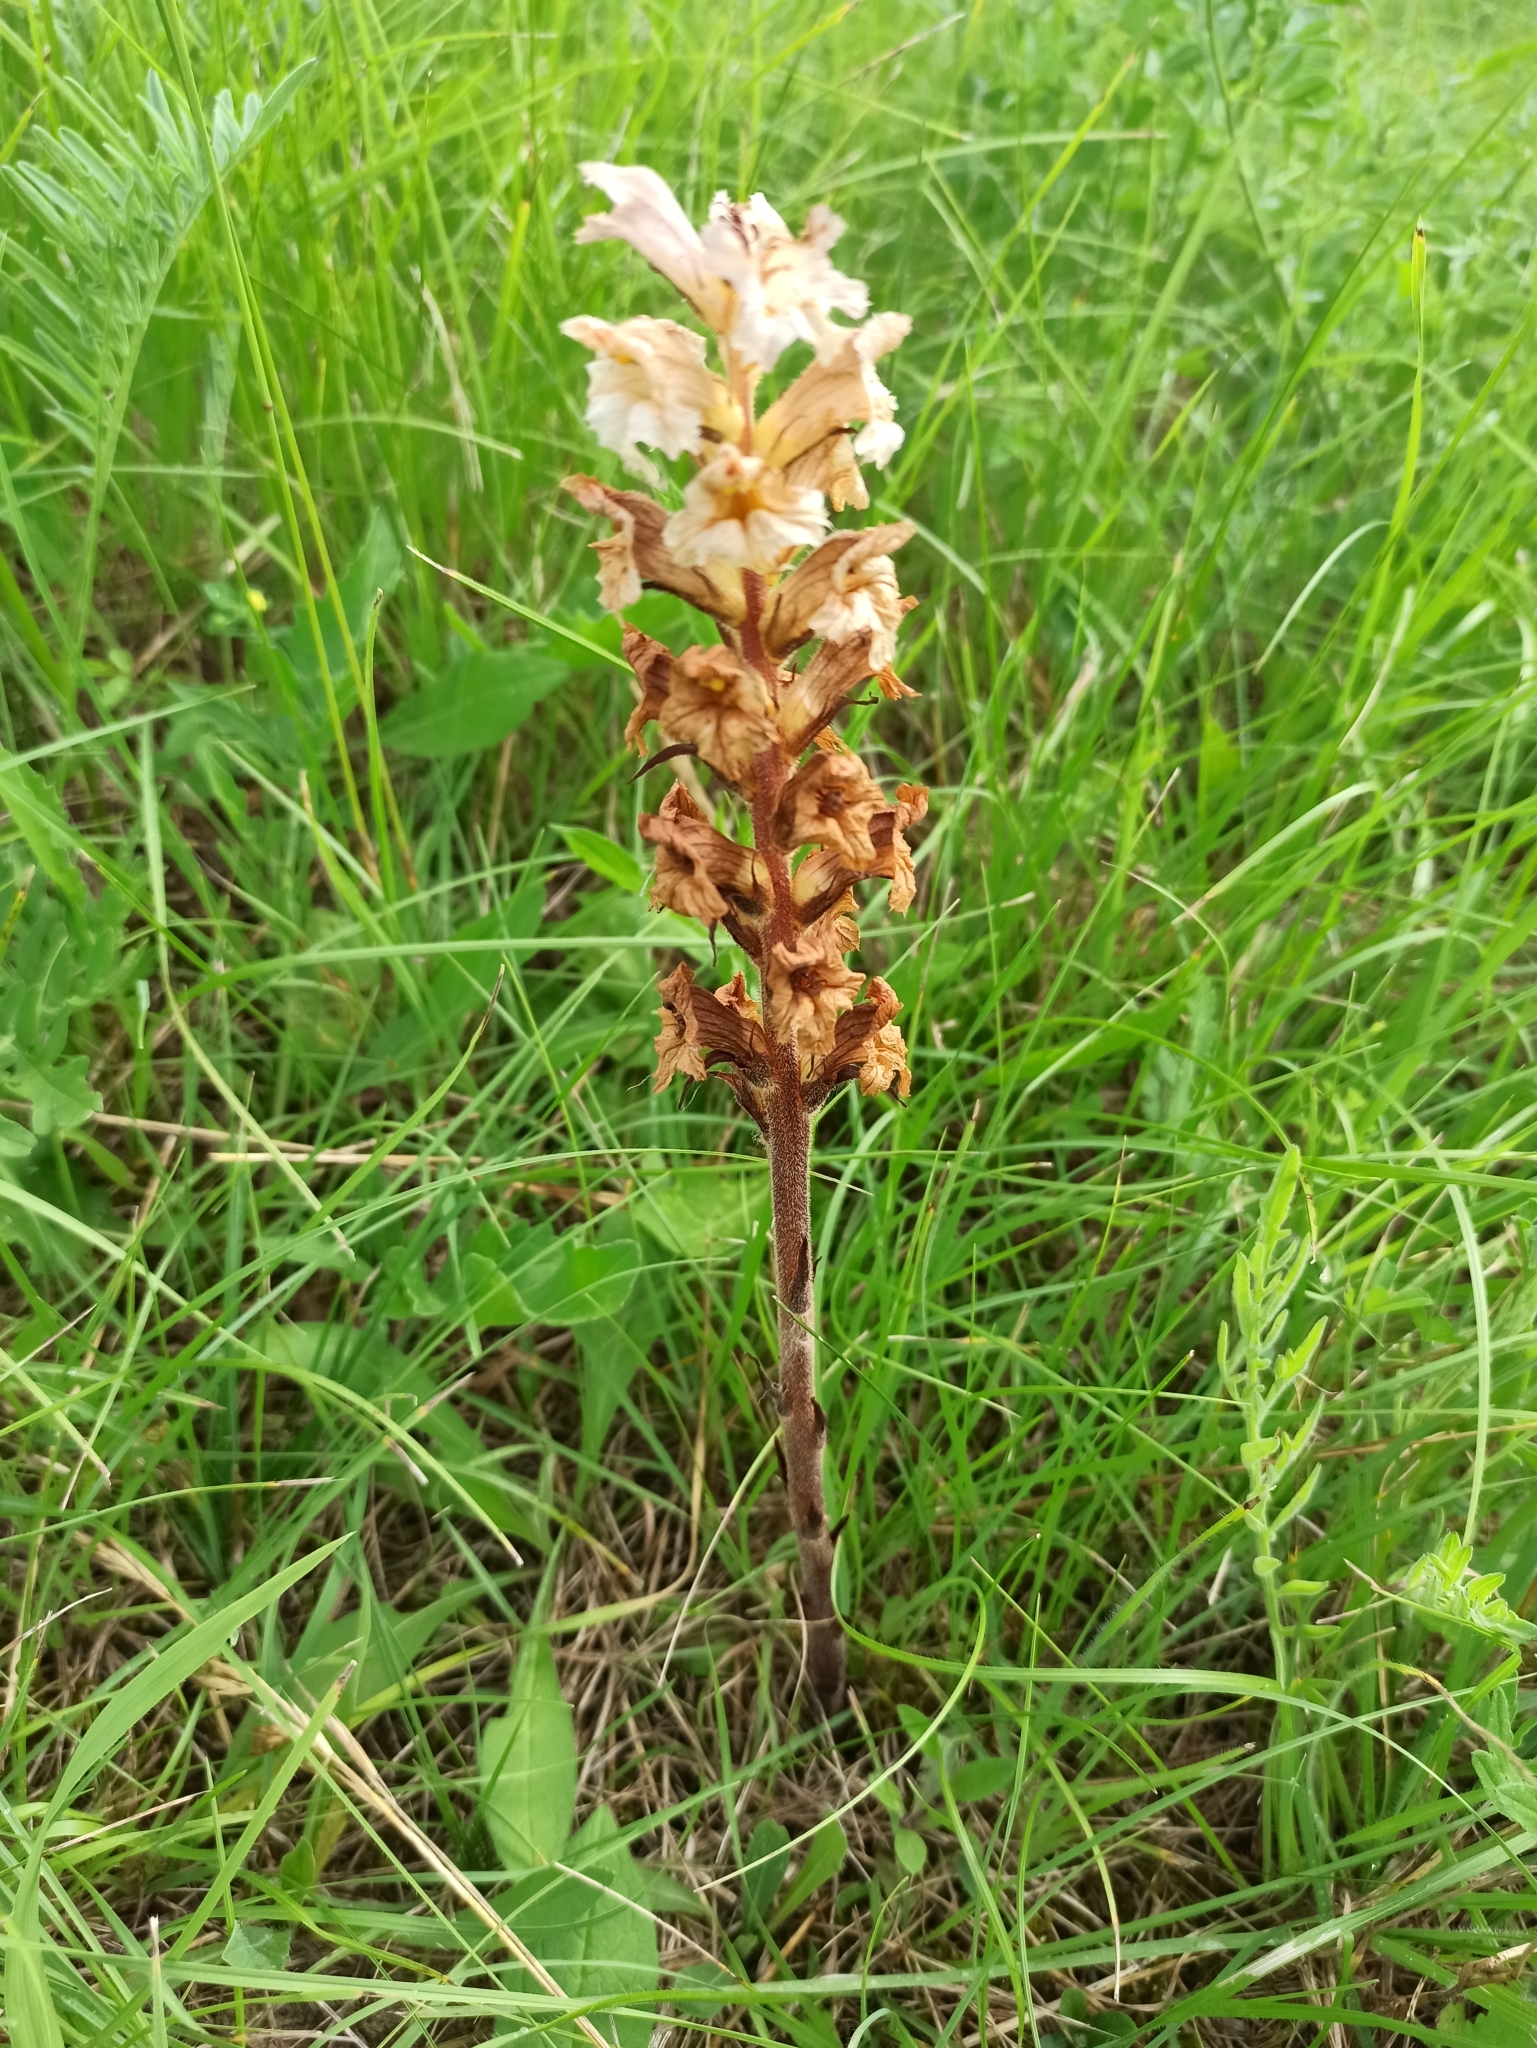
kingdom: Plantae
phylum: Tracheophyta
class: Magnoliopsida
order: Lamiales
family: Orobanchaceae
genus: Orobanche
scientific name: Orobanche lutea
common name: Yellow broomrape
